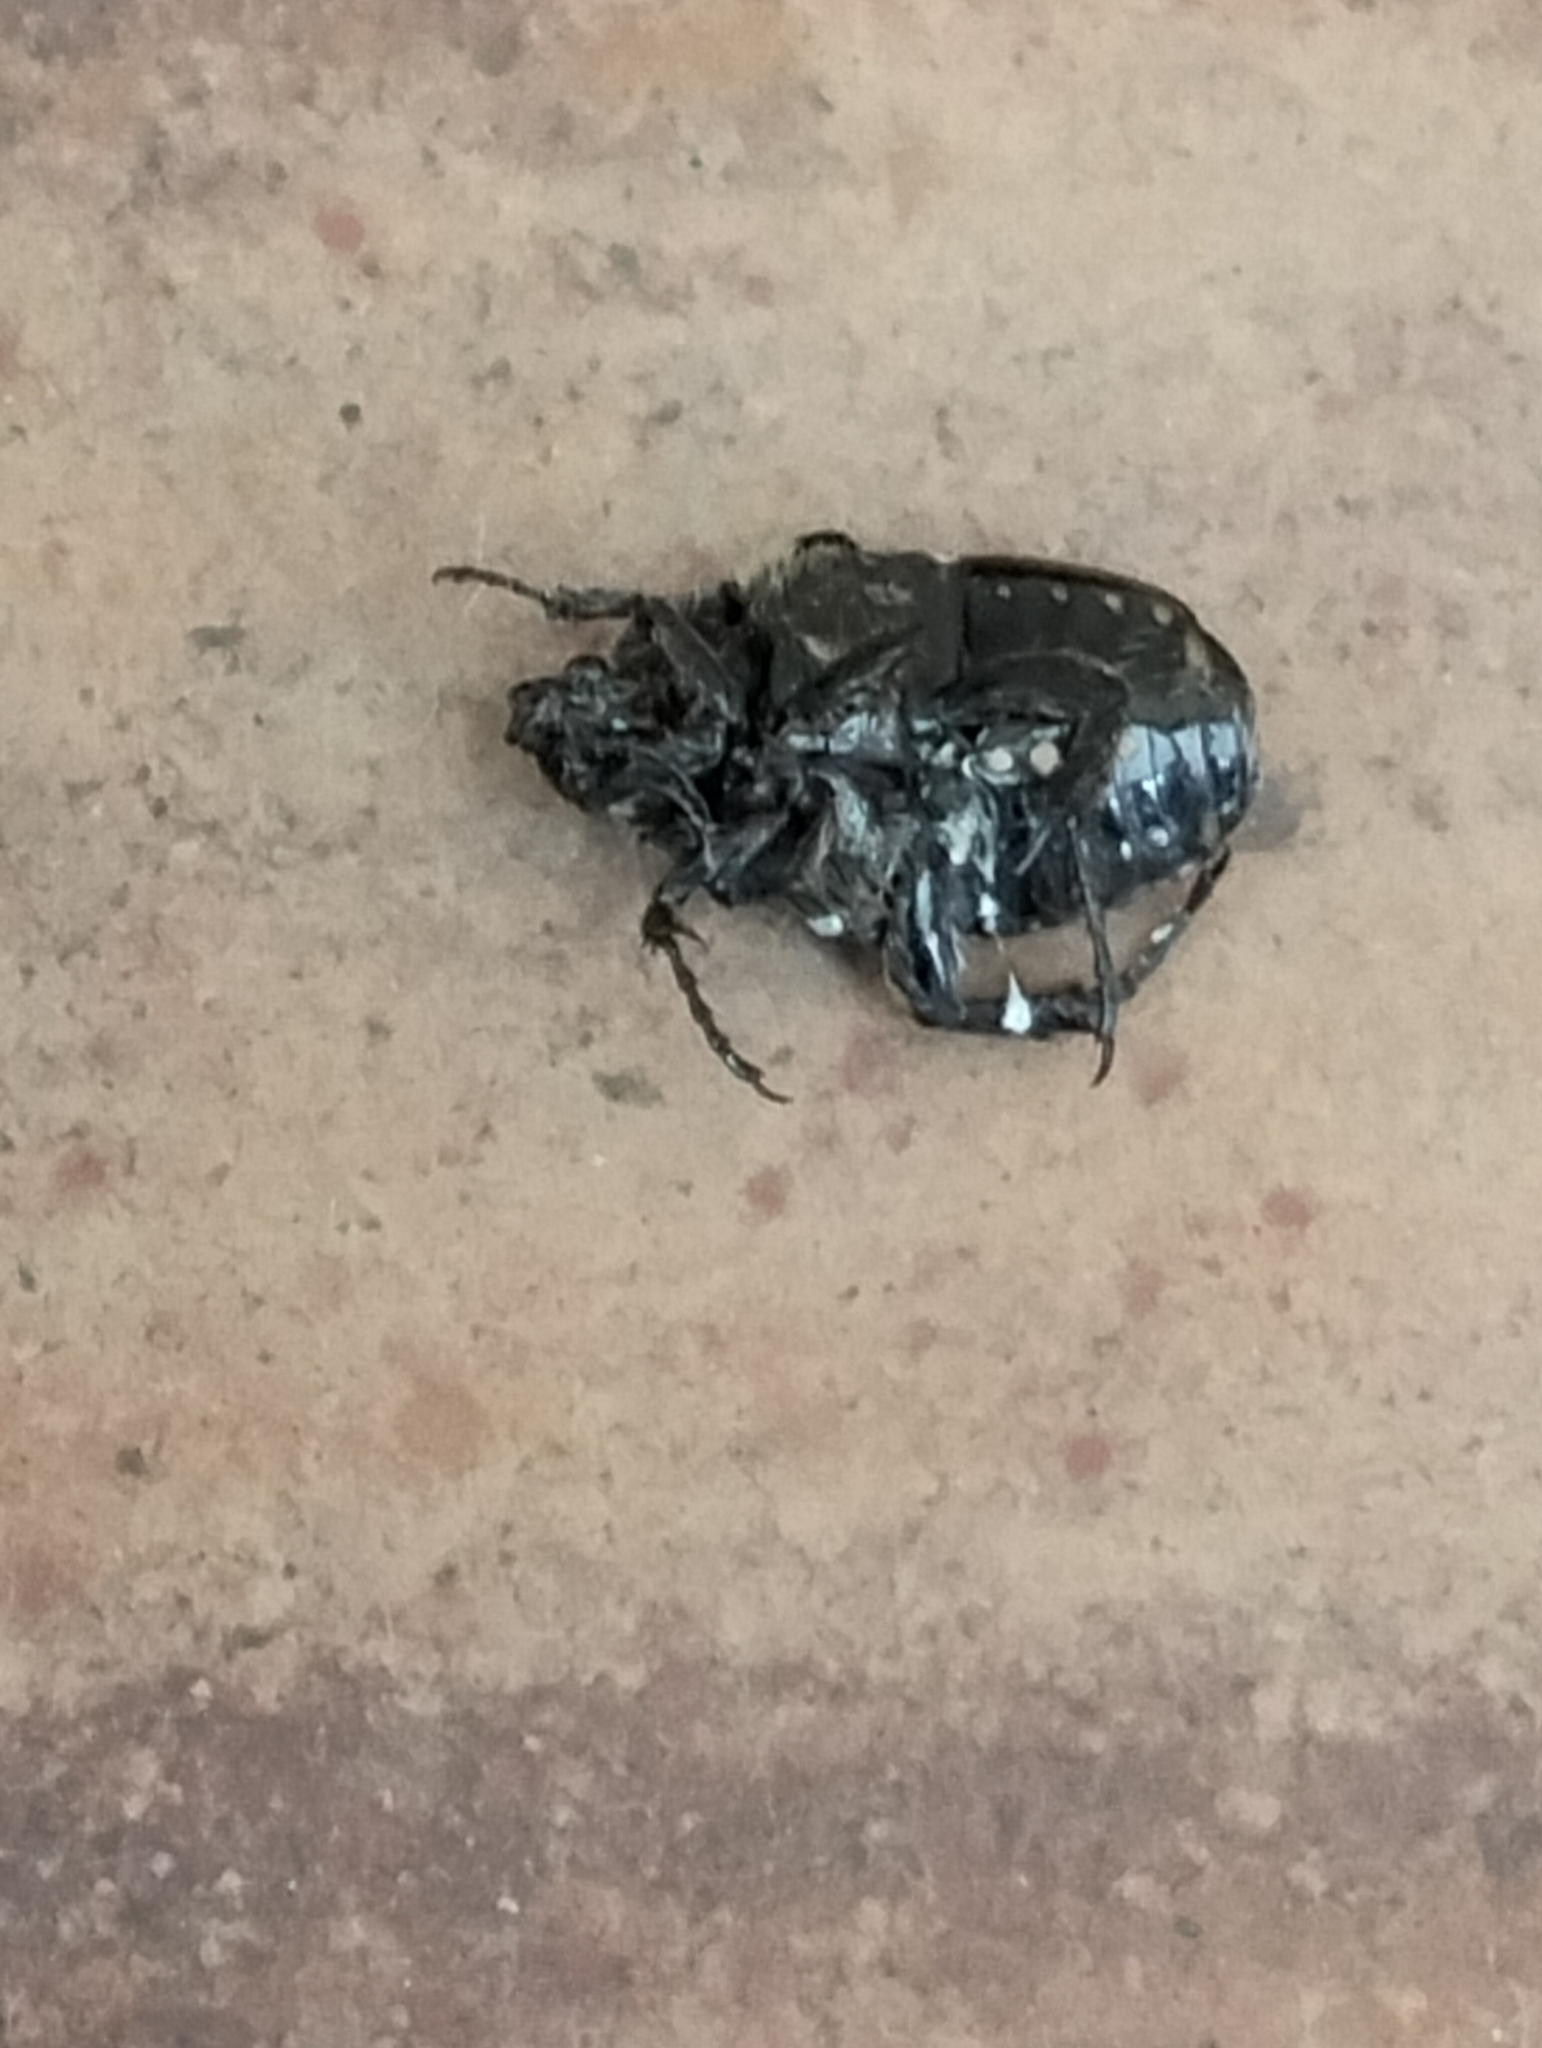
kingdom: Animalia
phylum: Arthropoda
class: Insecta
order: Coleoptera
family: Scarabaeidae
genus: Oxythyrea
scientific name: Oxythyrea funesta
